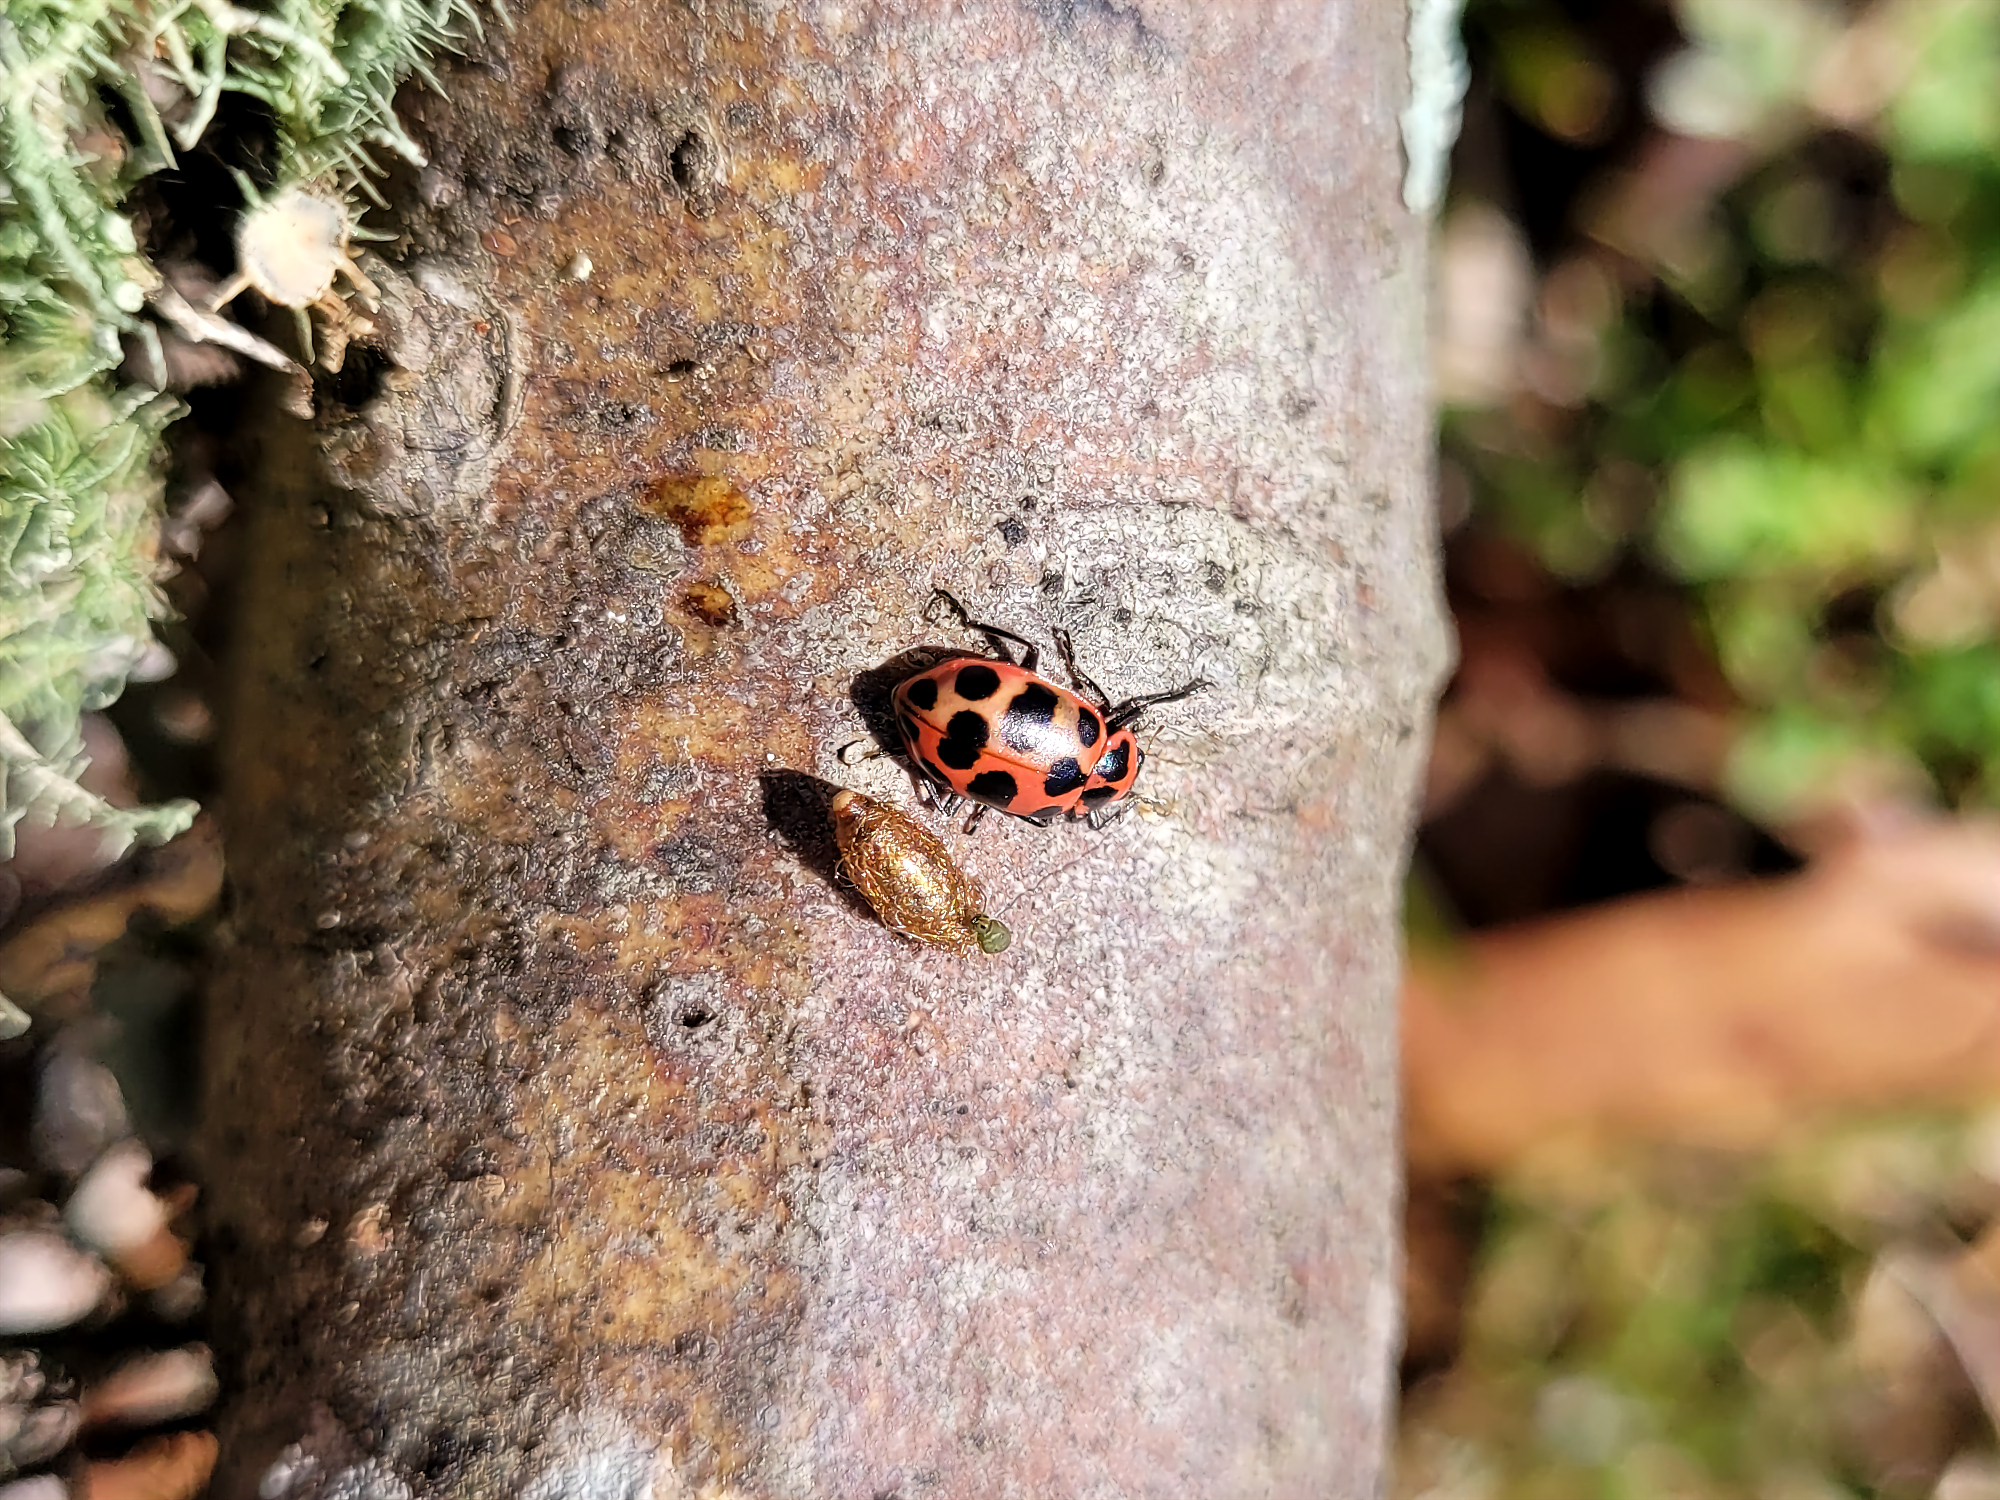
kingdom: Animalia
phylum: Arthropoda
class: Insecta
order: Coleoptera
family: Coccinellidae
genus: Coleomegilla
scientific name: Coleomegilla maculata
